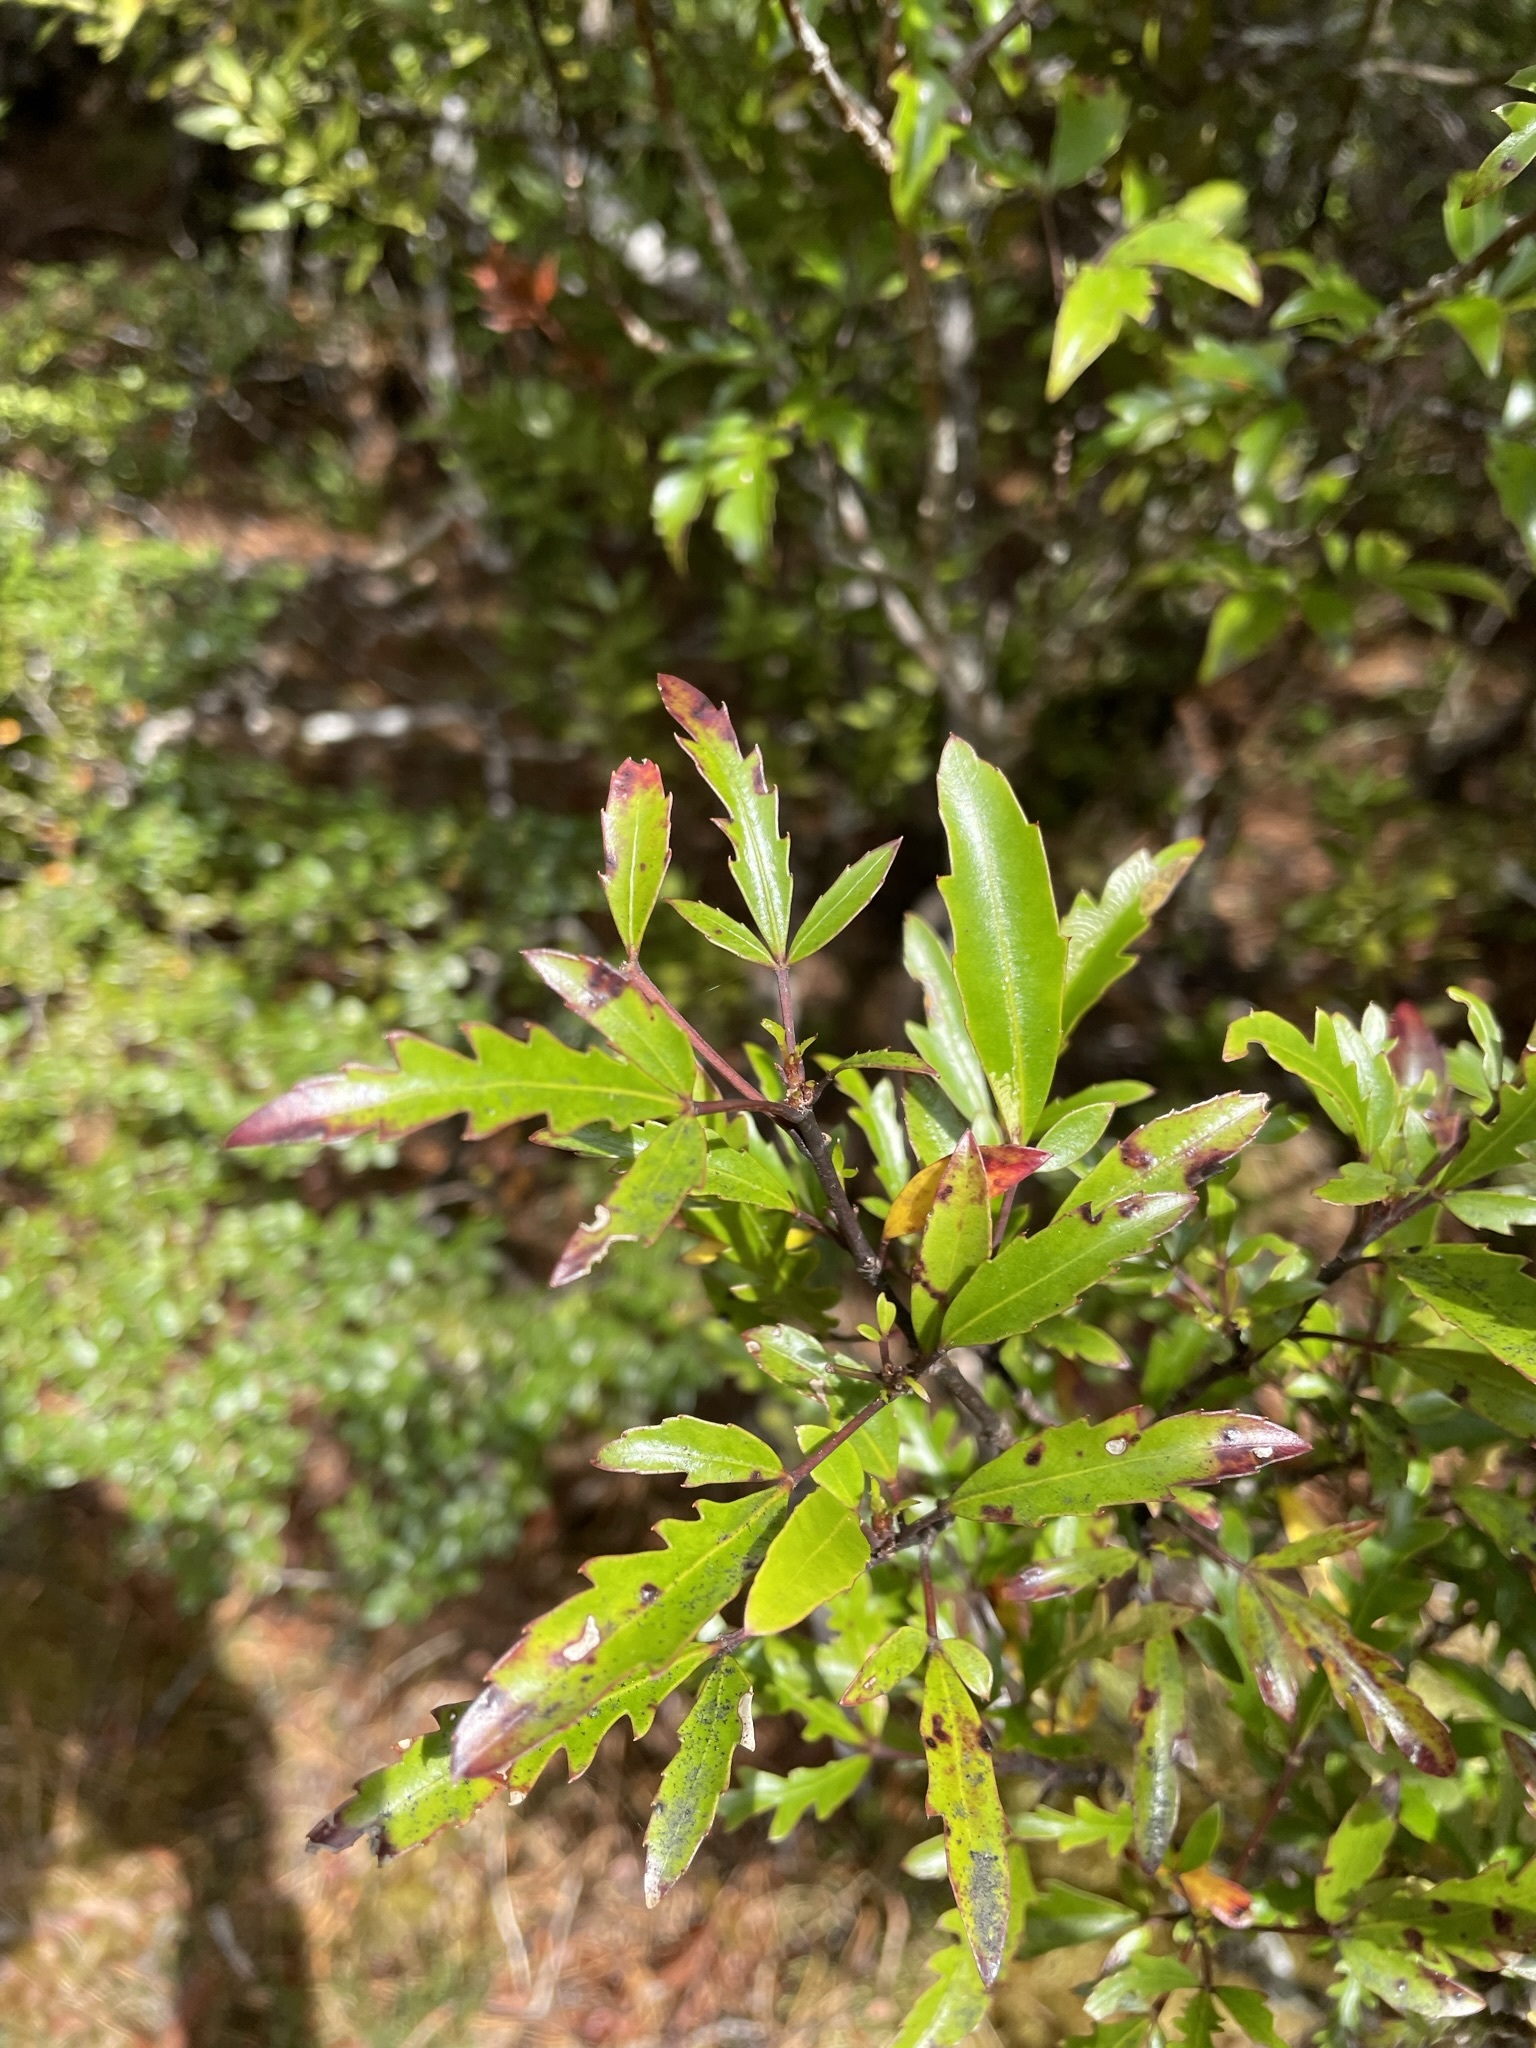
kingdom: Plantae
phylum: Tracheophyta
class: Magnoliopsida
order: Apiales
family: Araliaceae
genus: Raukaua
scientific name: Raukaua simplex
